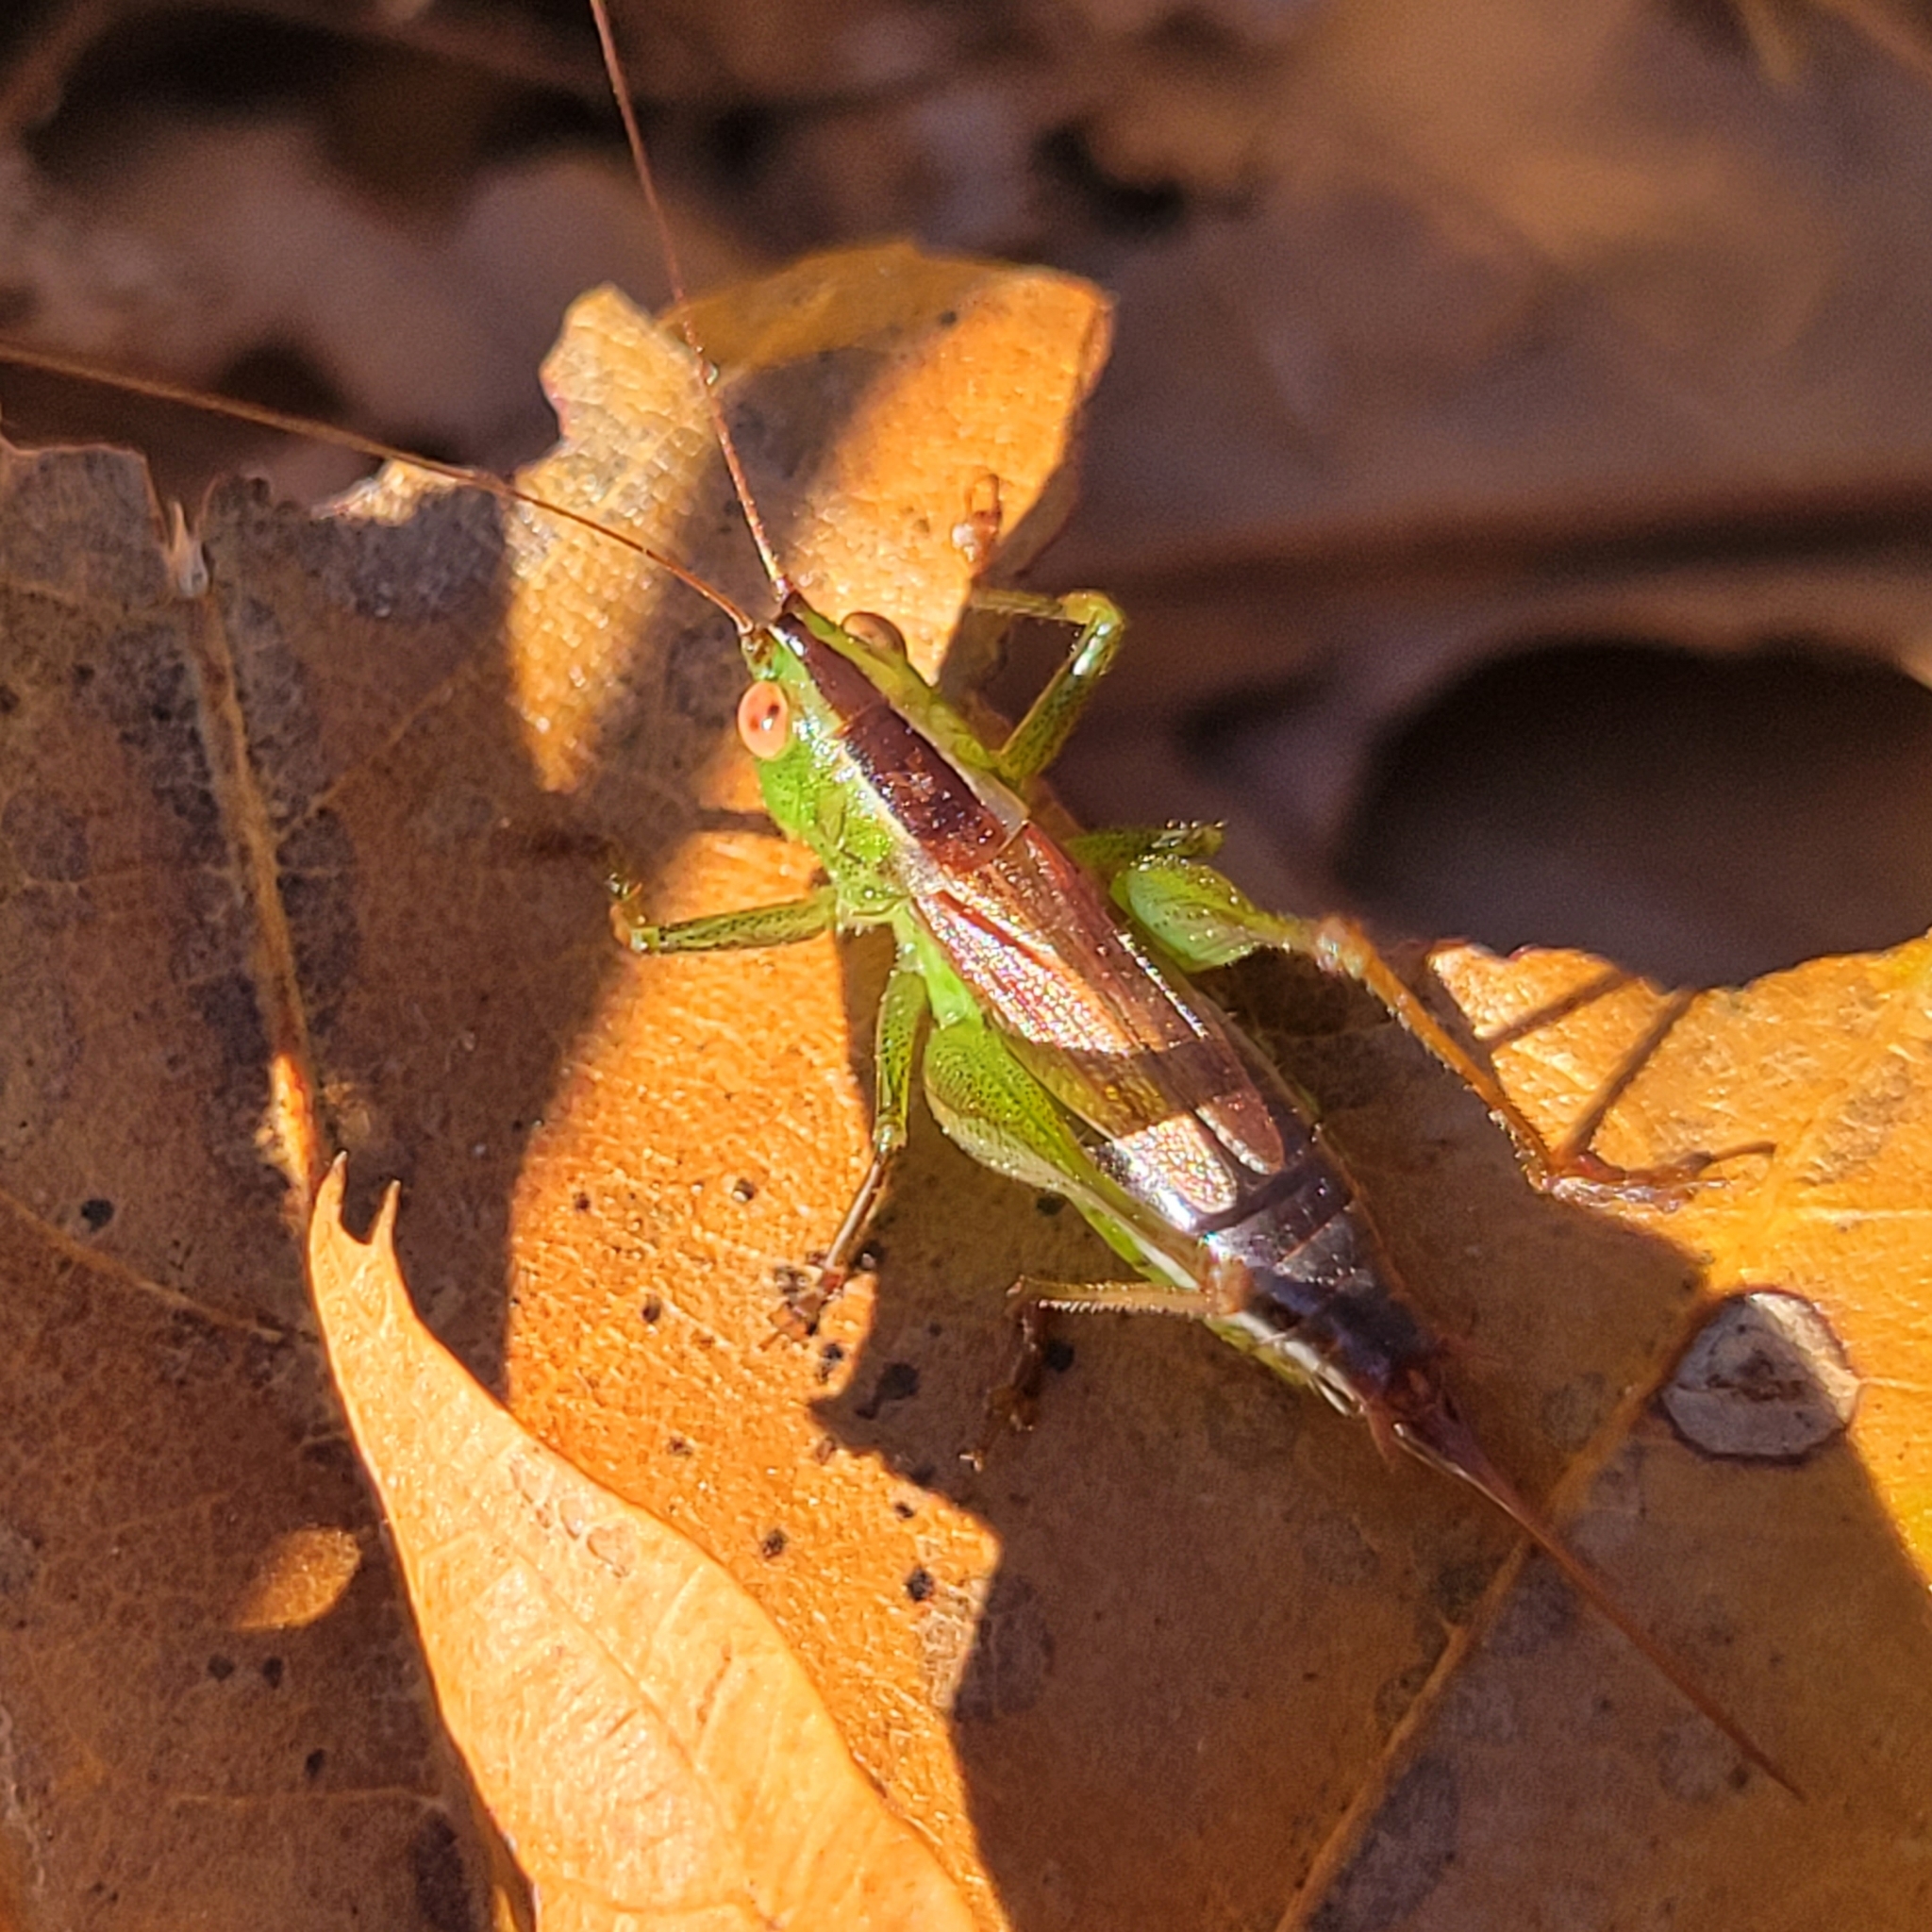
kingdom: Animalia
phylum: Arthropoda
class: Insecta
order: Orthoptera
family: Tettigoniidae
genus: Conocephalus
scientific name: Conocephalus brevipennis
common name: Short-winged meadow katydid
